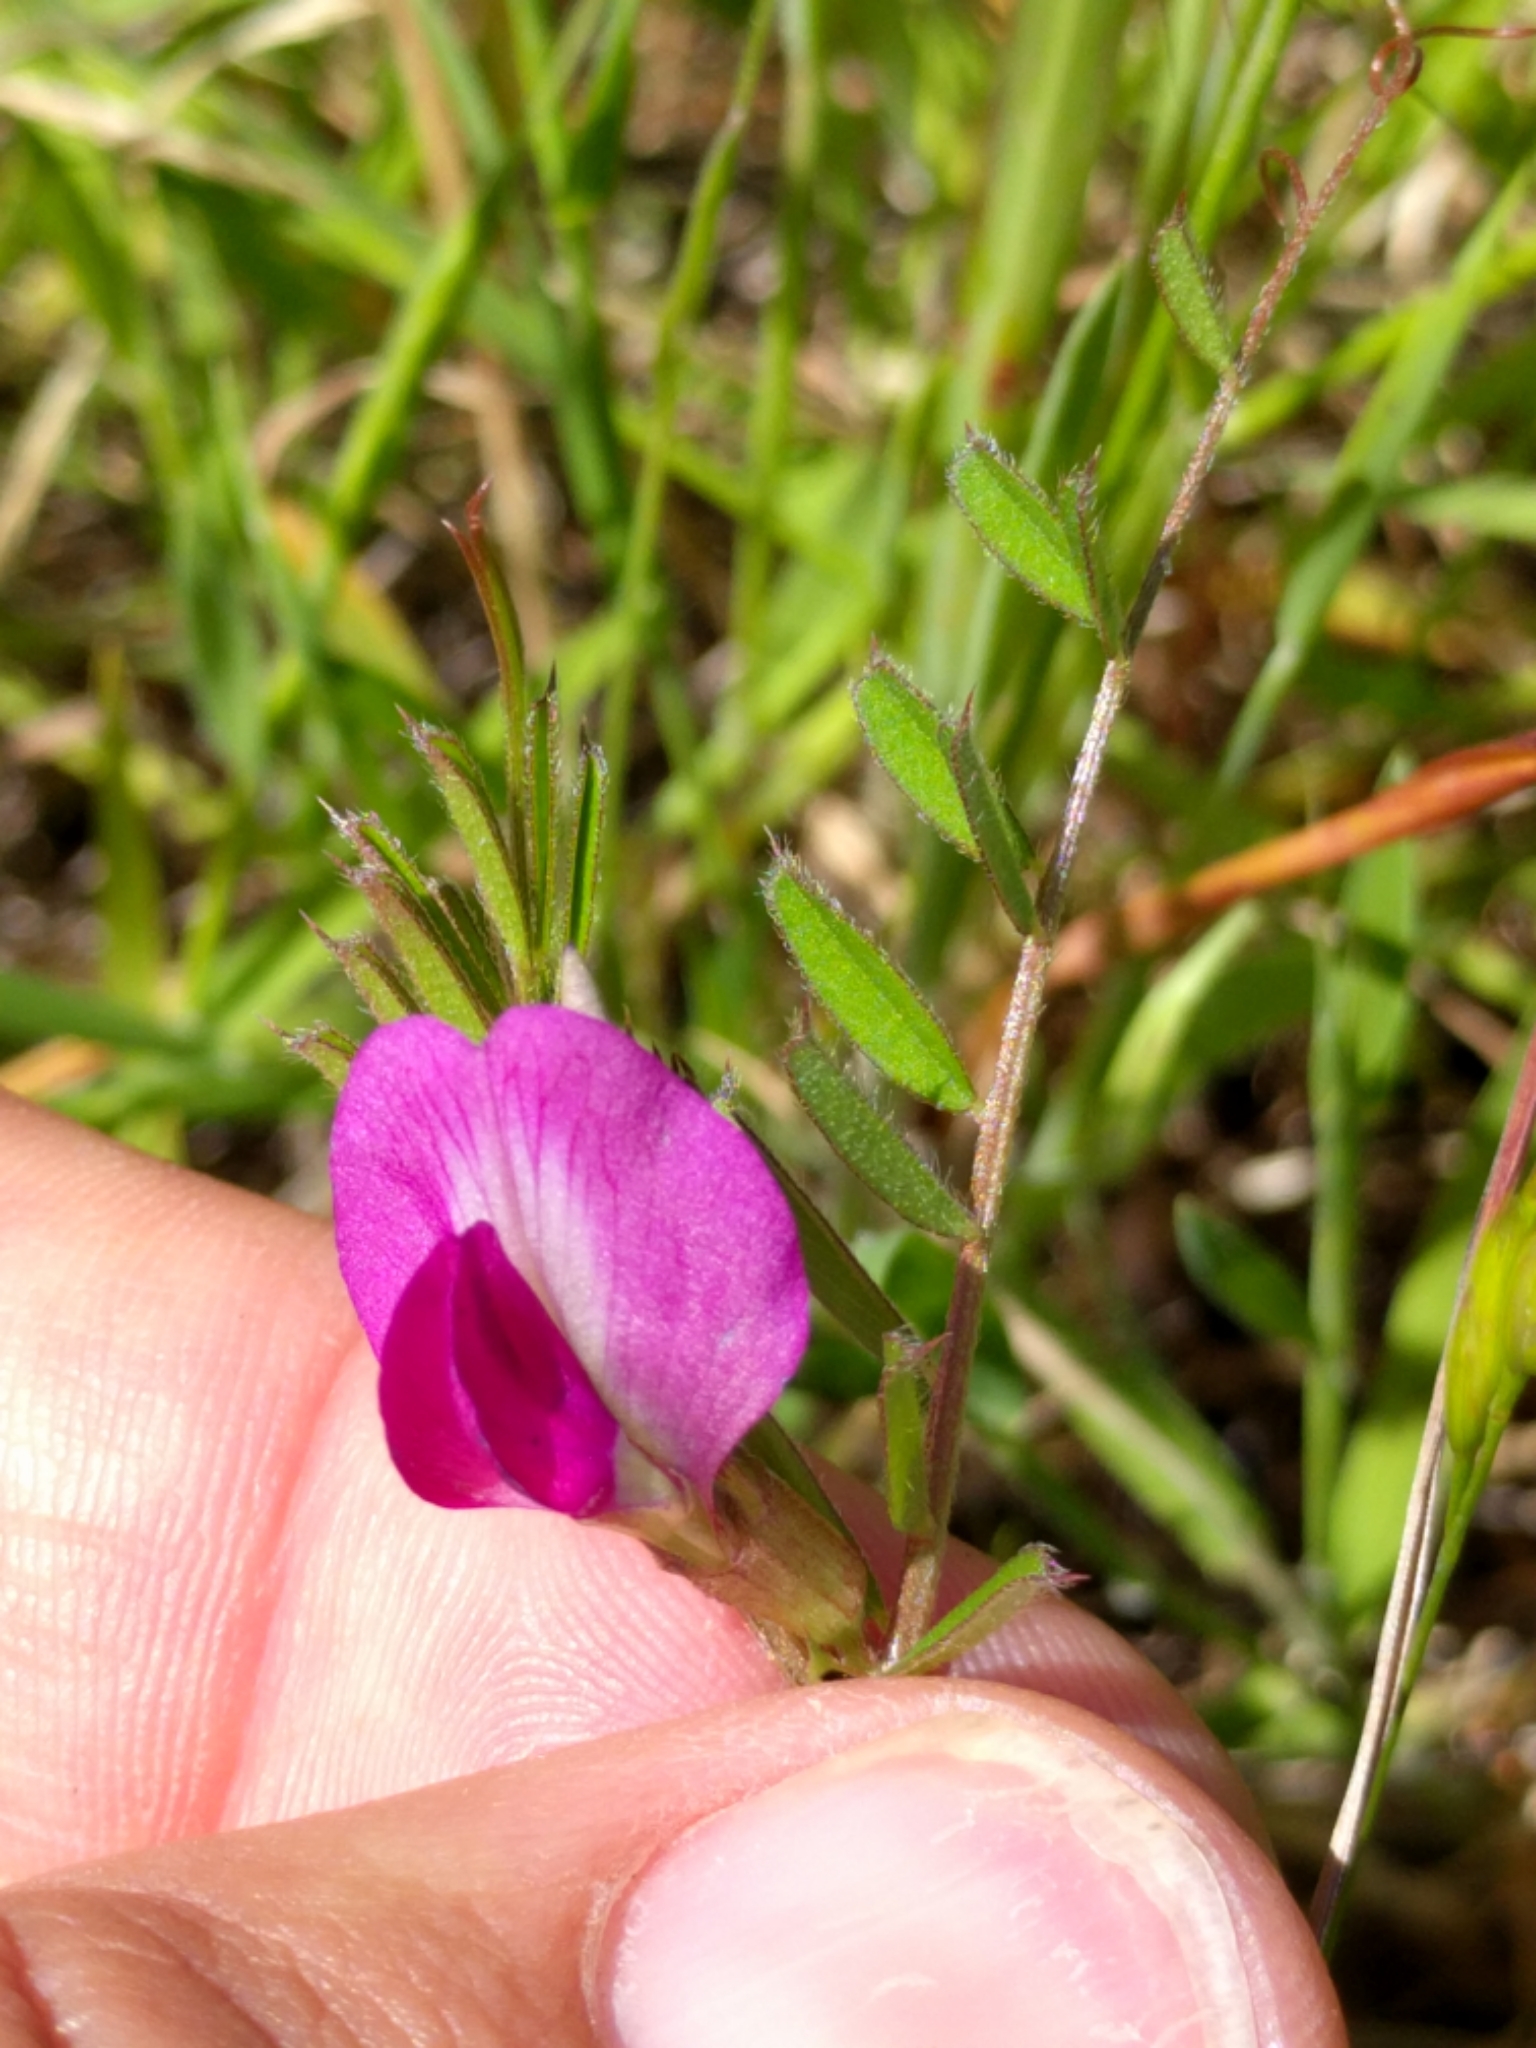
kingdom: Plantae
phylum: Tracheophyta
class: Magnoliopsida
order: Fabales
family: Fabaceae
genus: Vicia
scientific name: Vicia sativa
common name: Garden vetch
